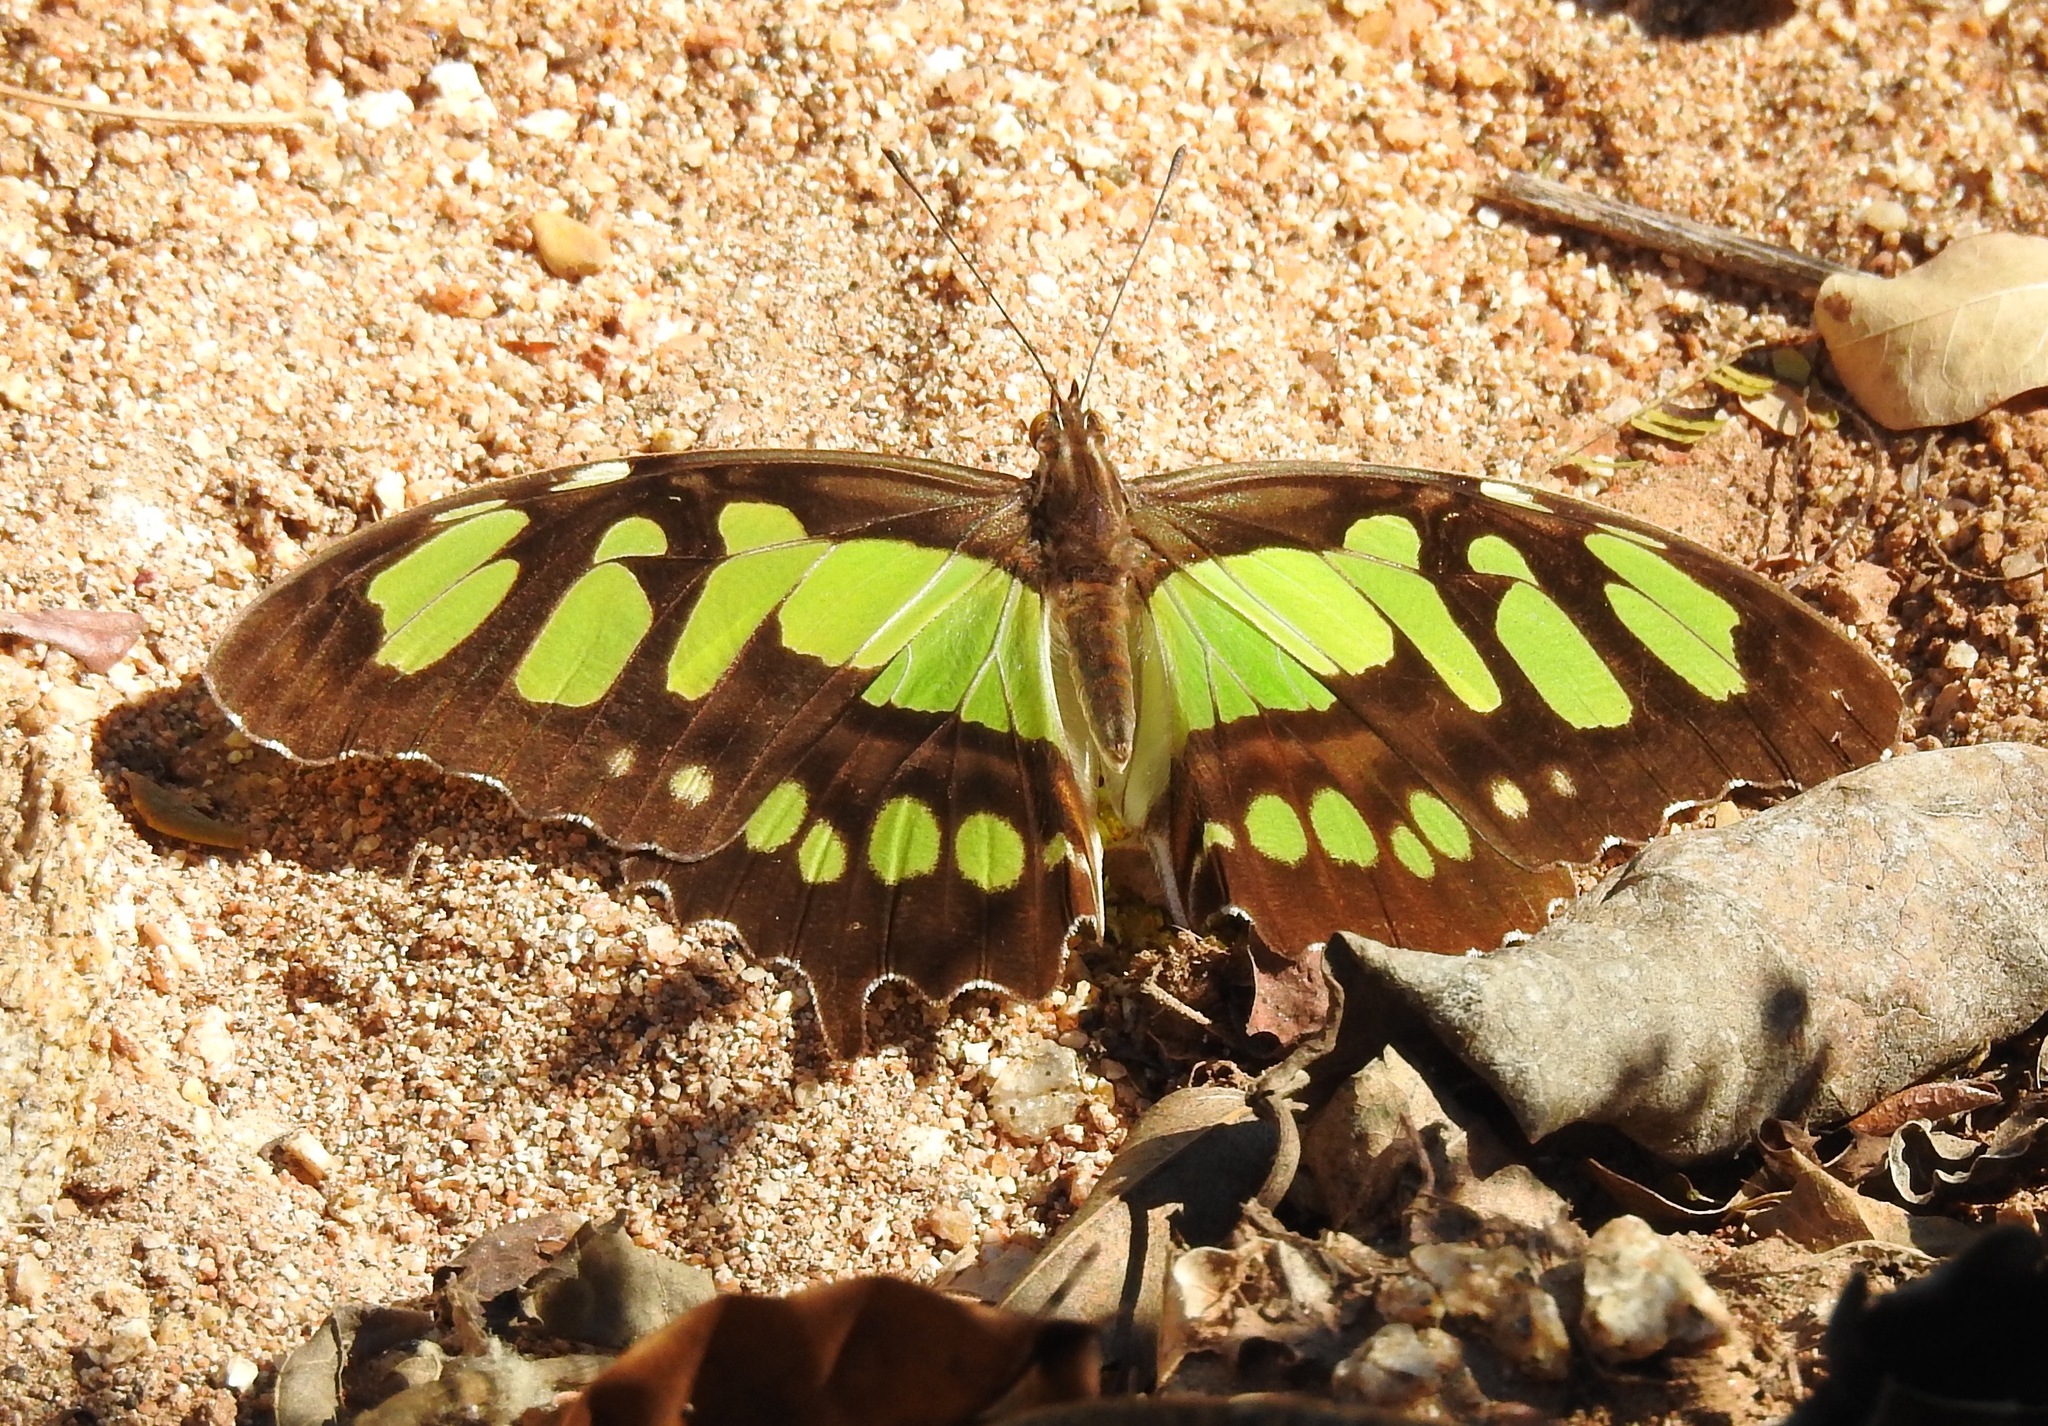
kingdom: Animalia
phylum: Arthropoda
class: Insecta
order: Lepidoptera
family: Nymphalidae
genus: Siproeta
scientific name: Siproeta stelenes
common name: Malachite
